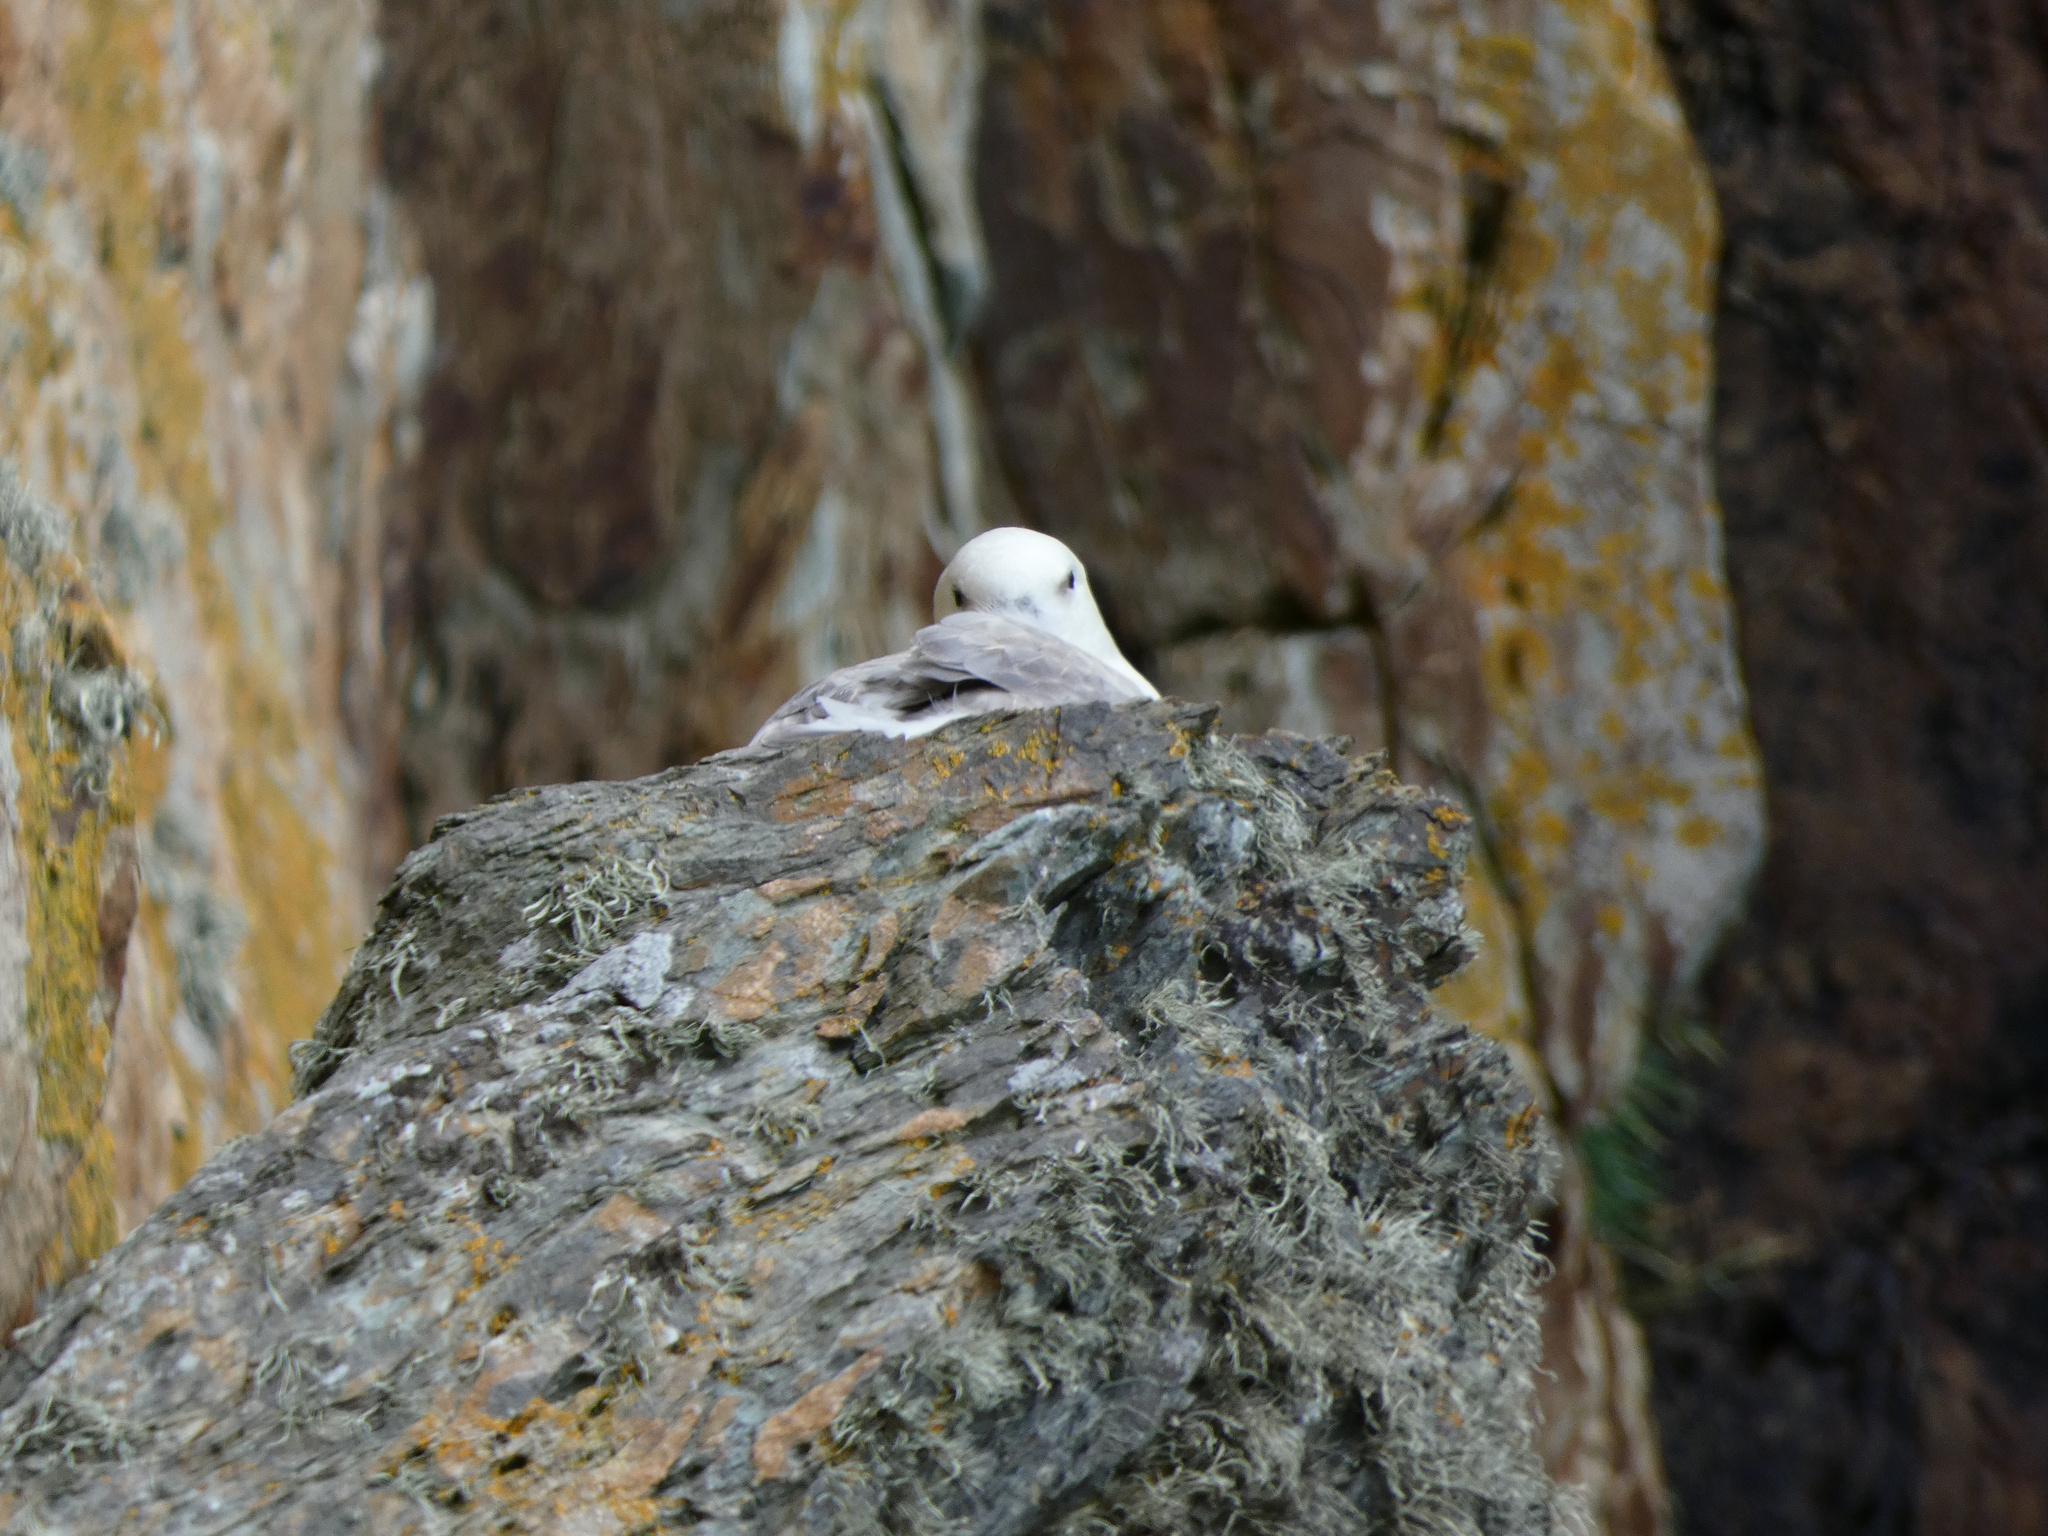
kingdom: Animalia
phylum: Chordata
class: Aves
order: Procellariiformes
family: Procellariidae
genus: Fulmarus
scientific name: Fulmarus glacialis
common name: Northern fulmar
